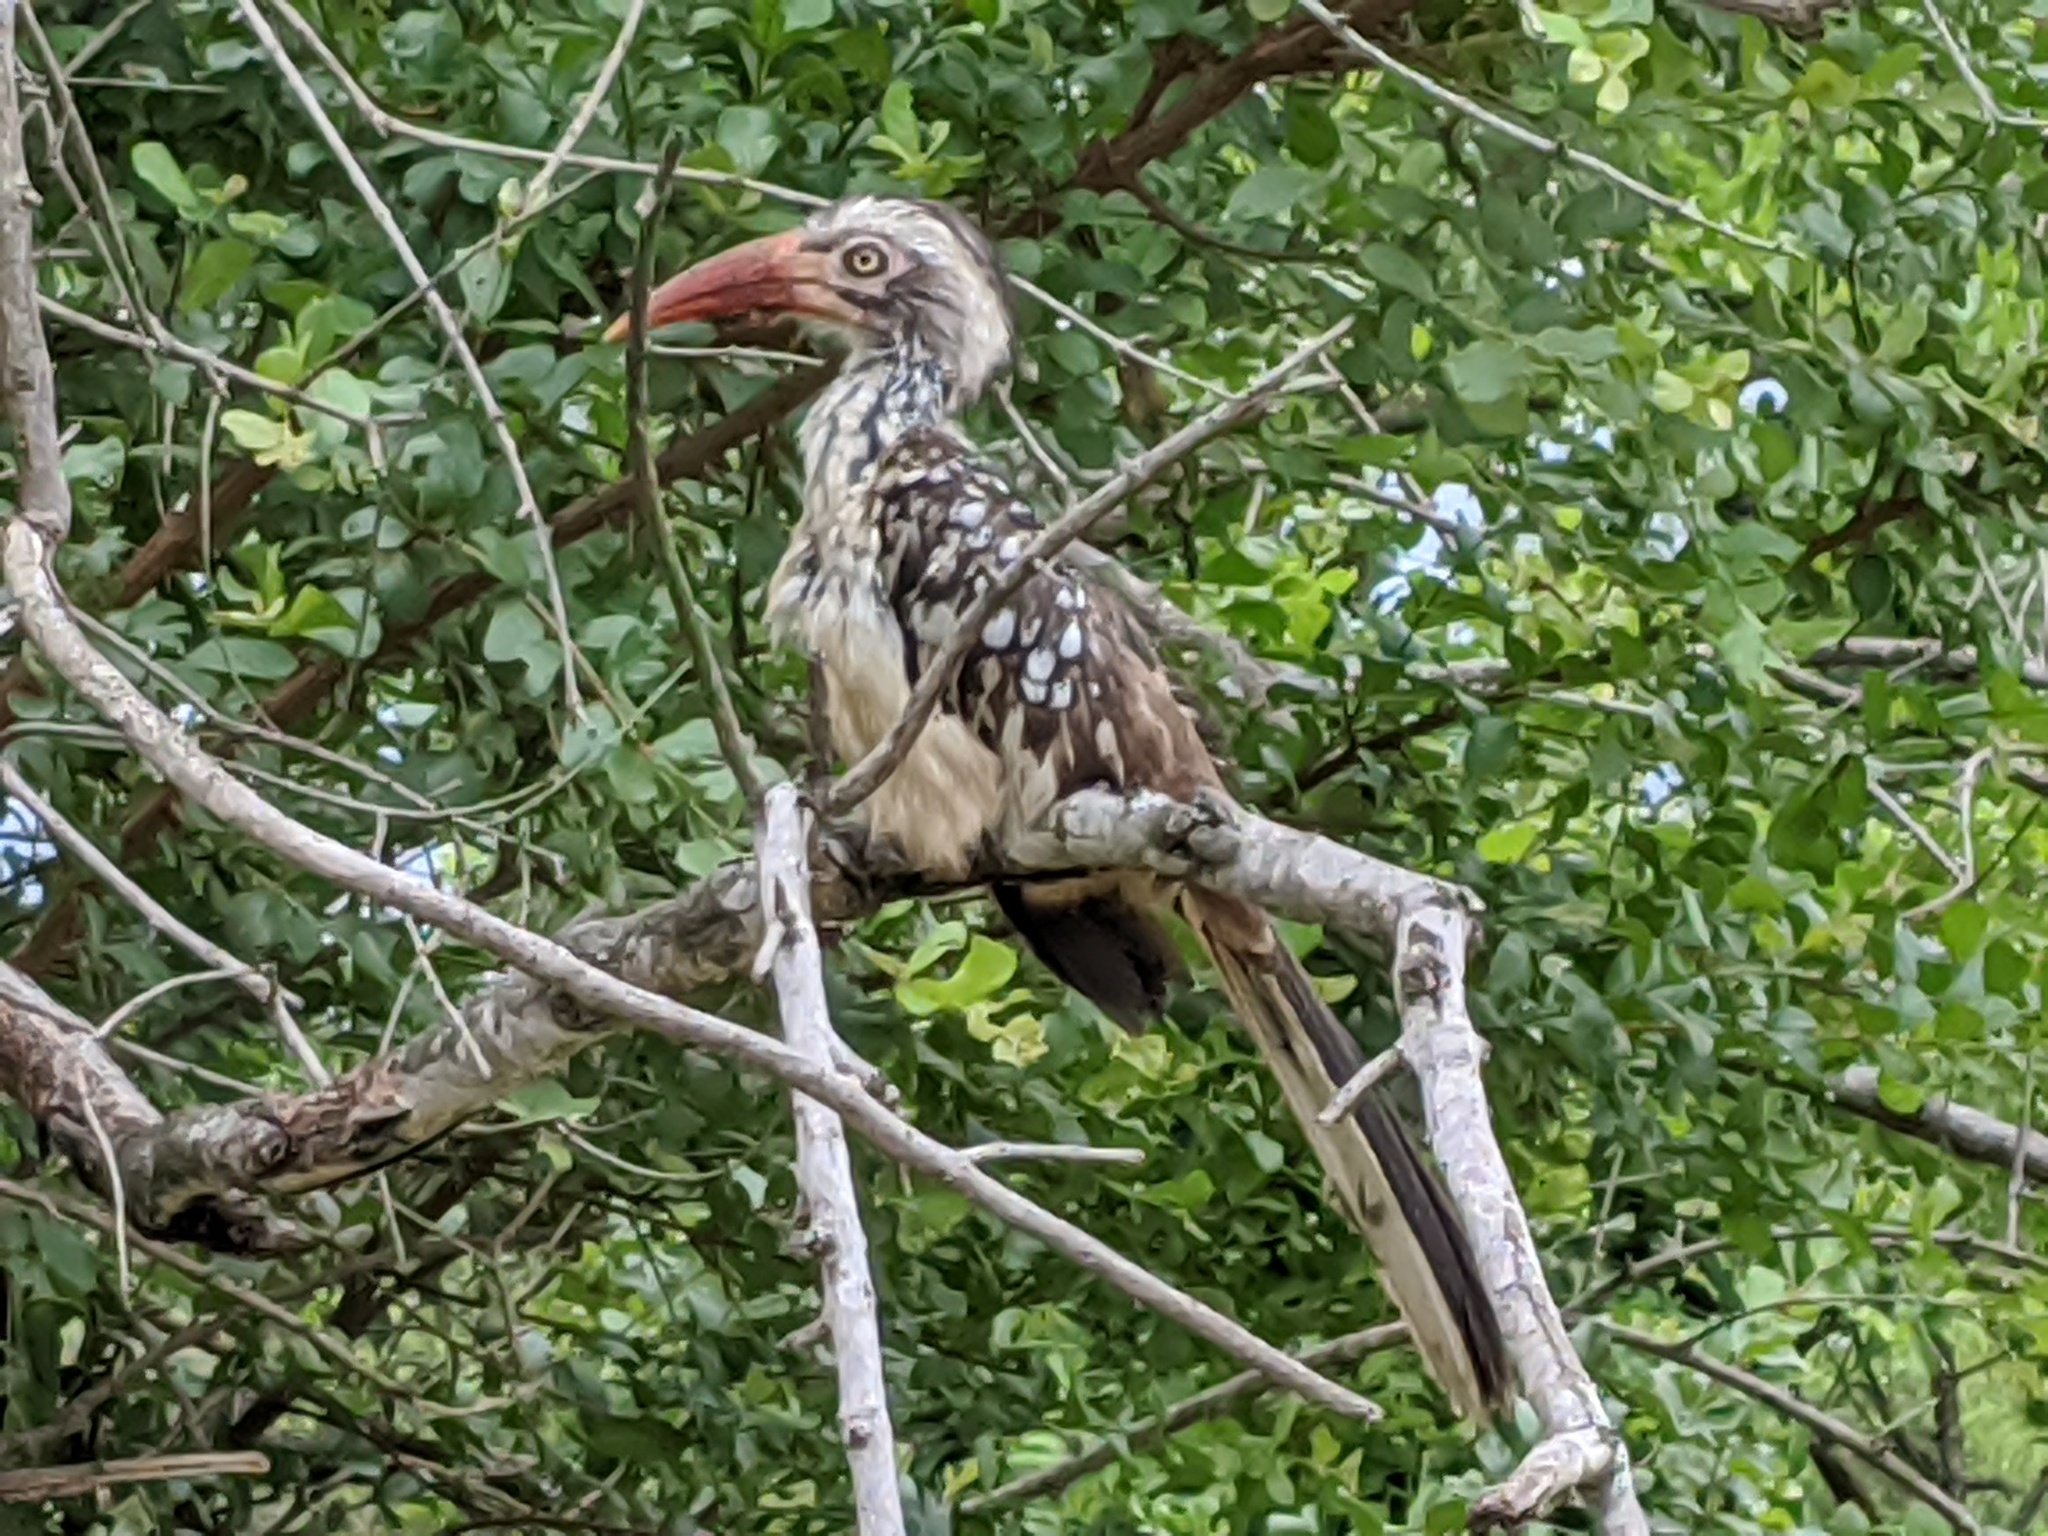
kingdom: Animalia
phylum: Chordata
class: Aves
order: Bucerotiformes
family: Bucerotidae
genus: Tockus
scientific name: Tockus rufirostris
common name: Southern red-billed hornbill
